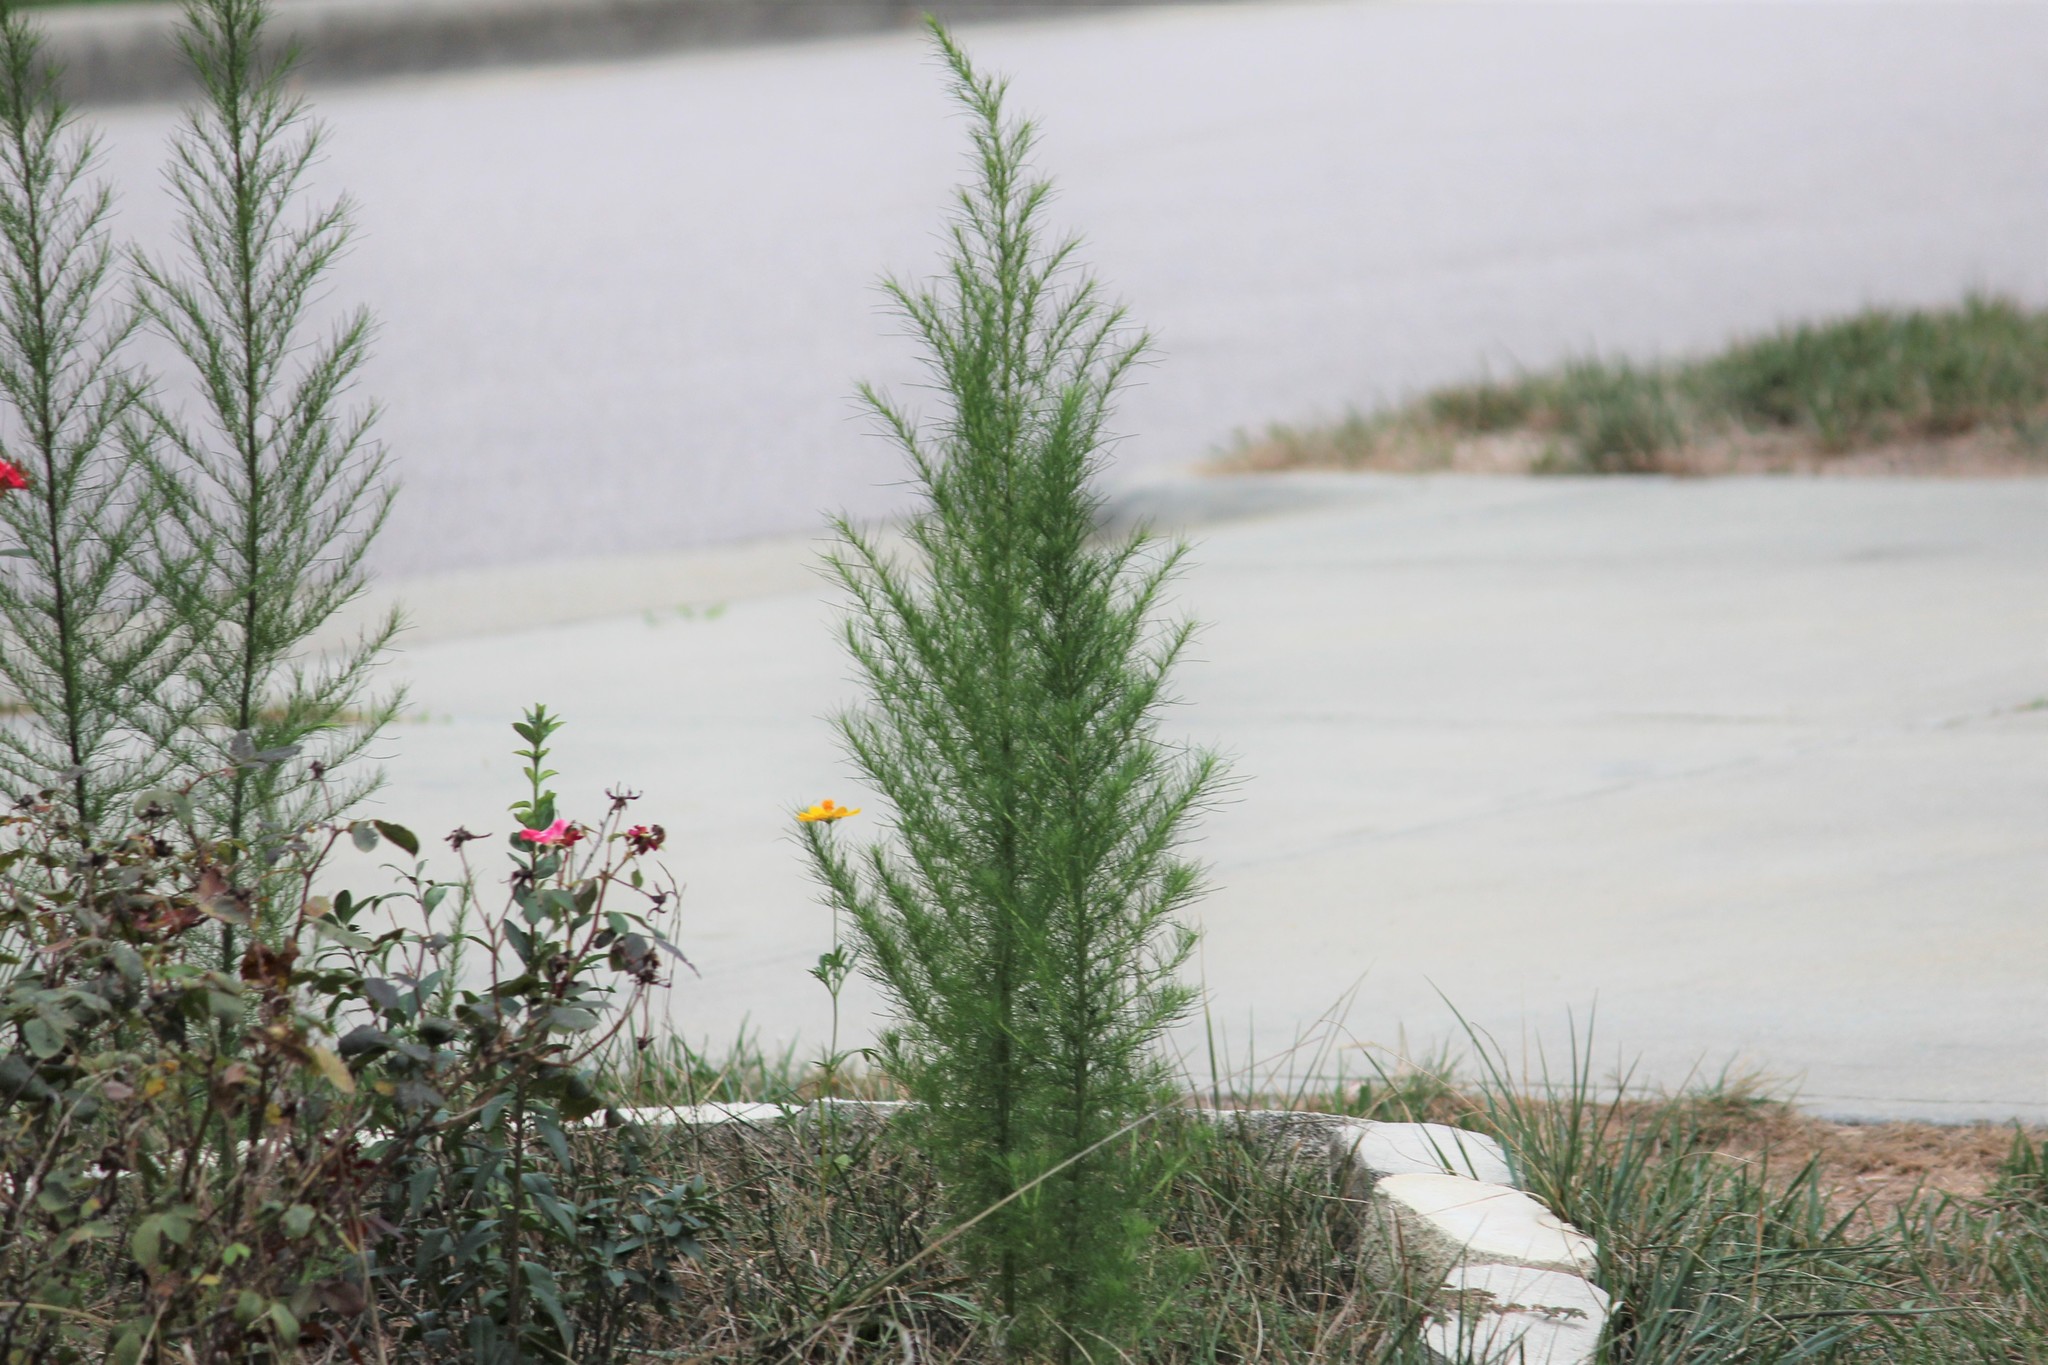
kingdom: Plantae
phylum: Tracheophyta
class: Magnoliopsida
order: Asterales
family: Asteraceae
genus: Eupatorium
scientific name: Eupatorium capillifolium
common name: Dog-fennel
